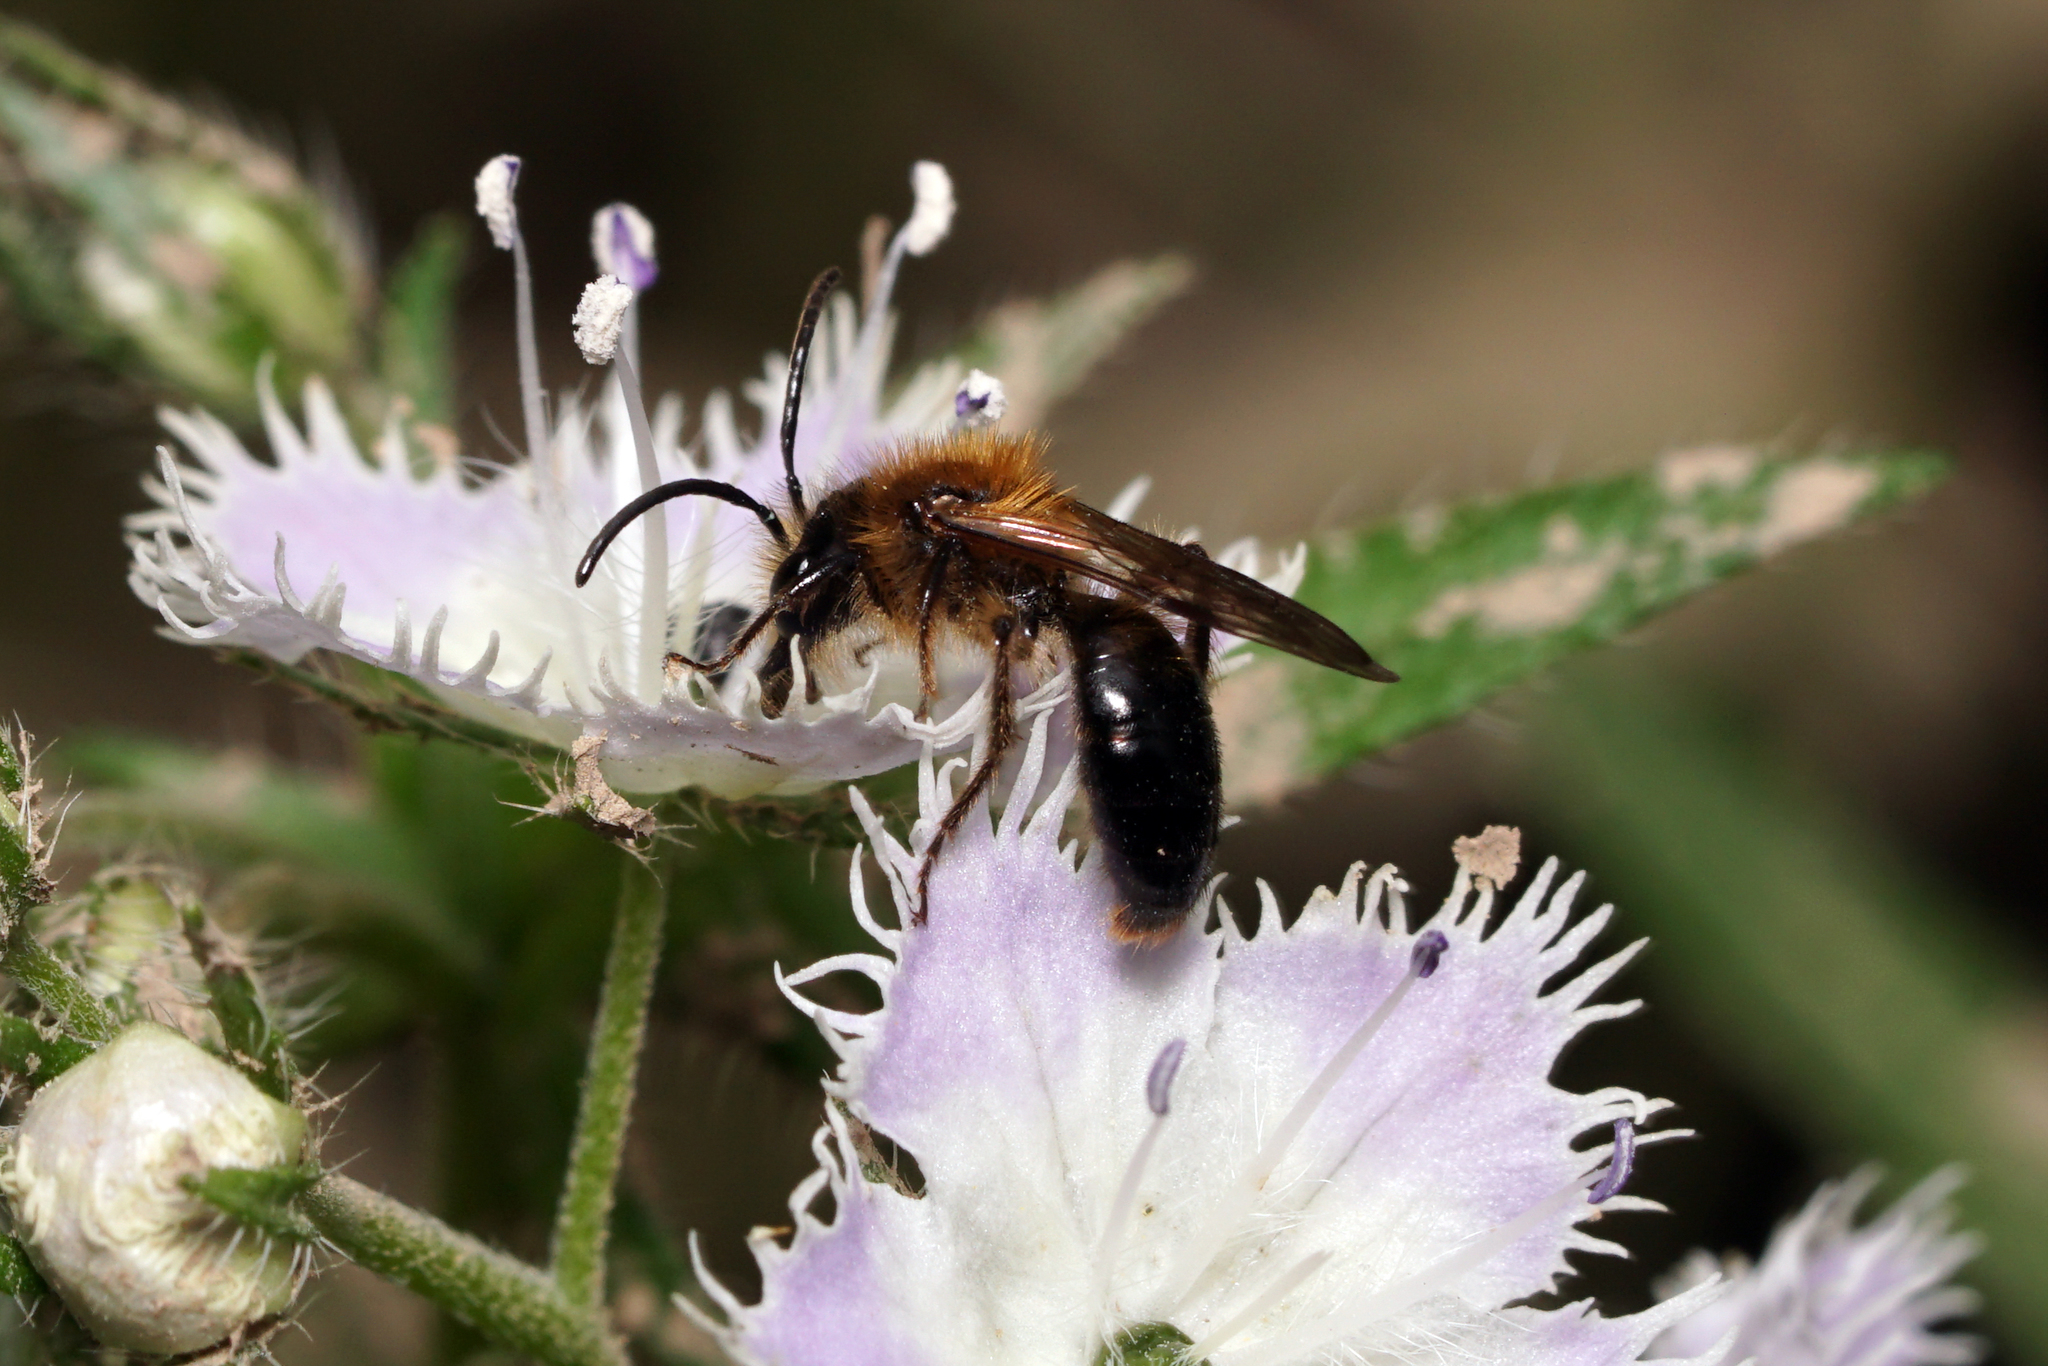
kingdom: Animalia
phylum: Arthropoda
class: Insecta
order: Hymenoptera
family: Andrenidae
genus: Andrena
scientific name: Andrena
